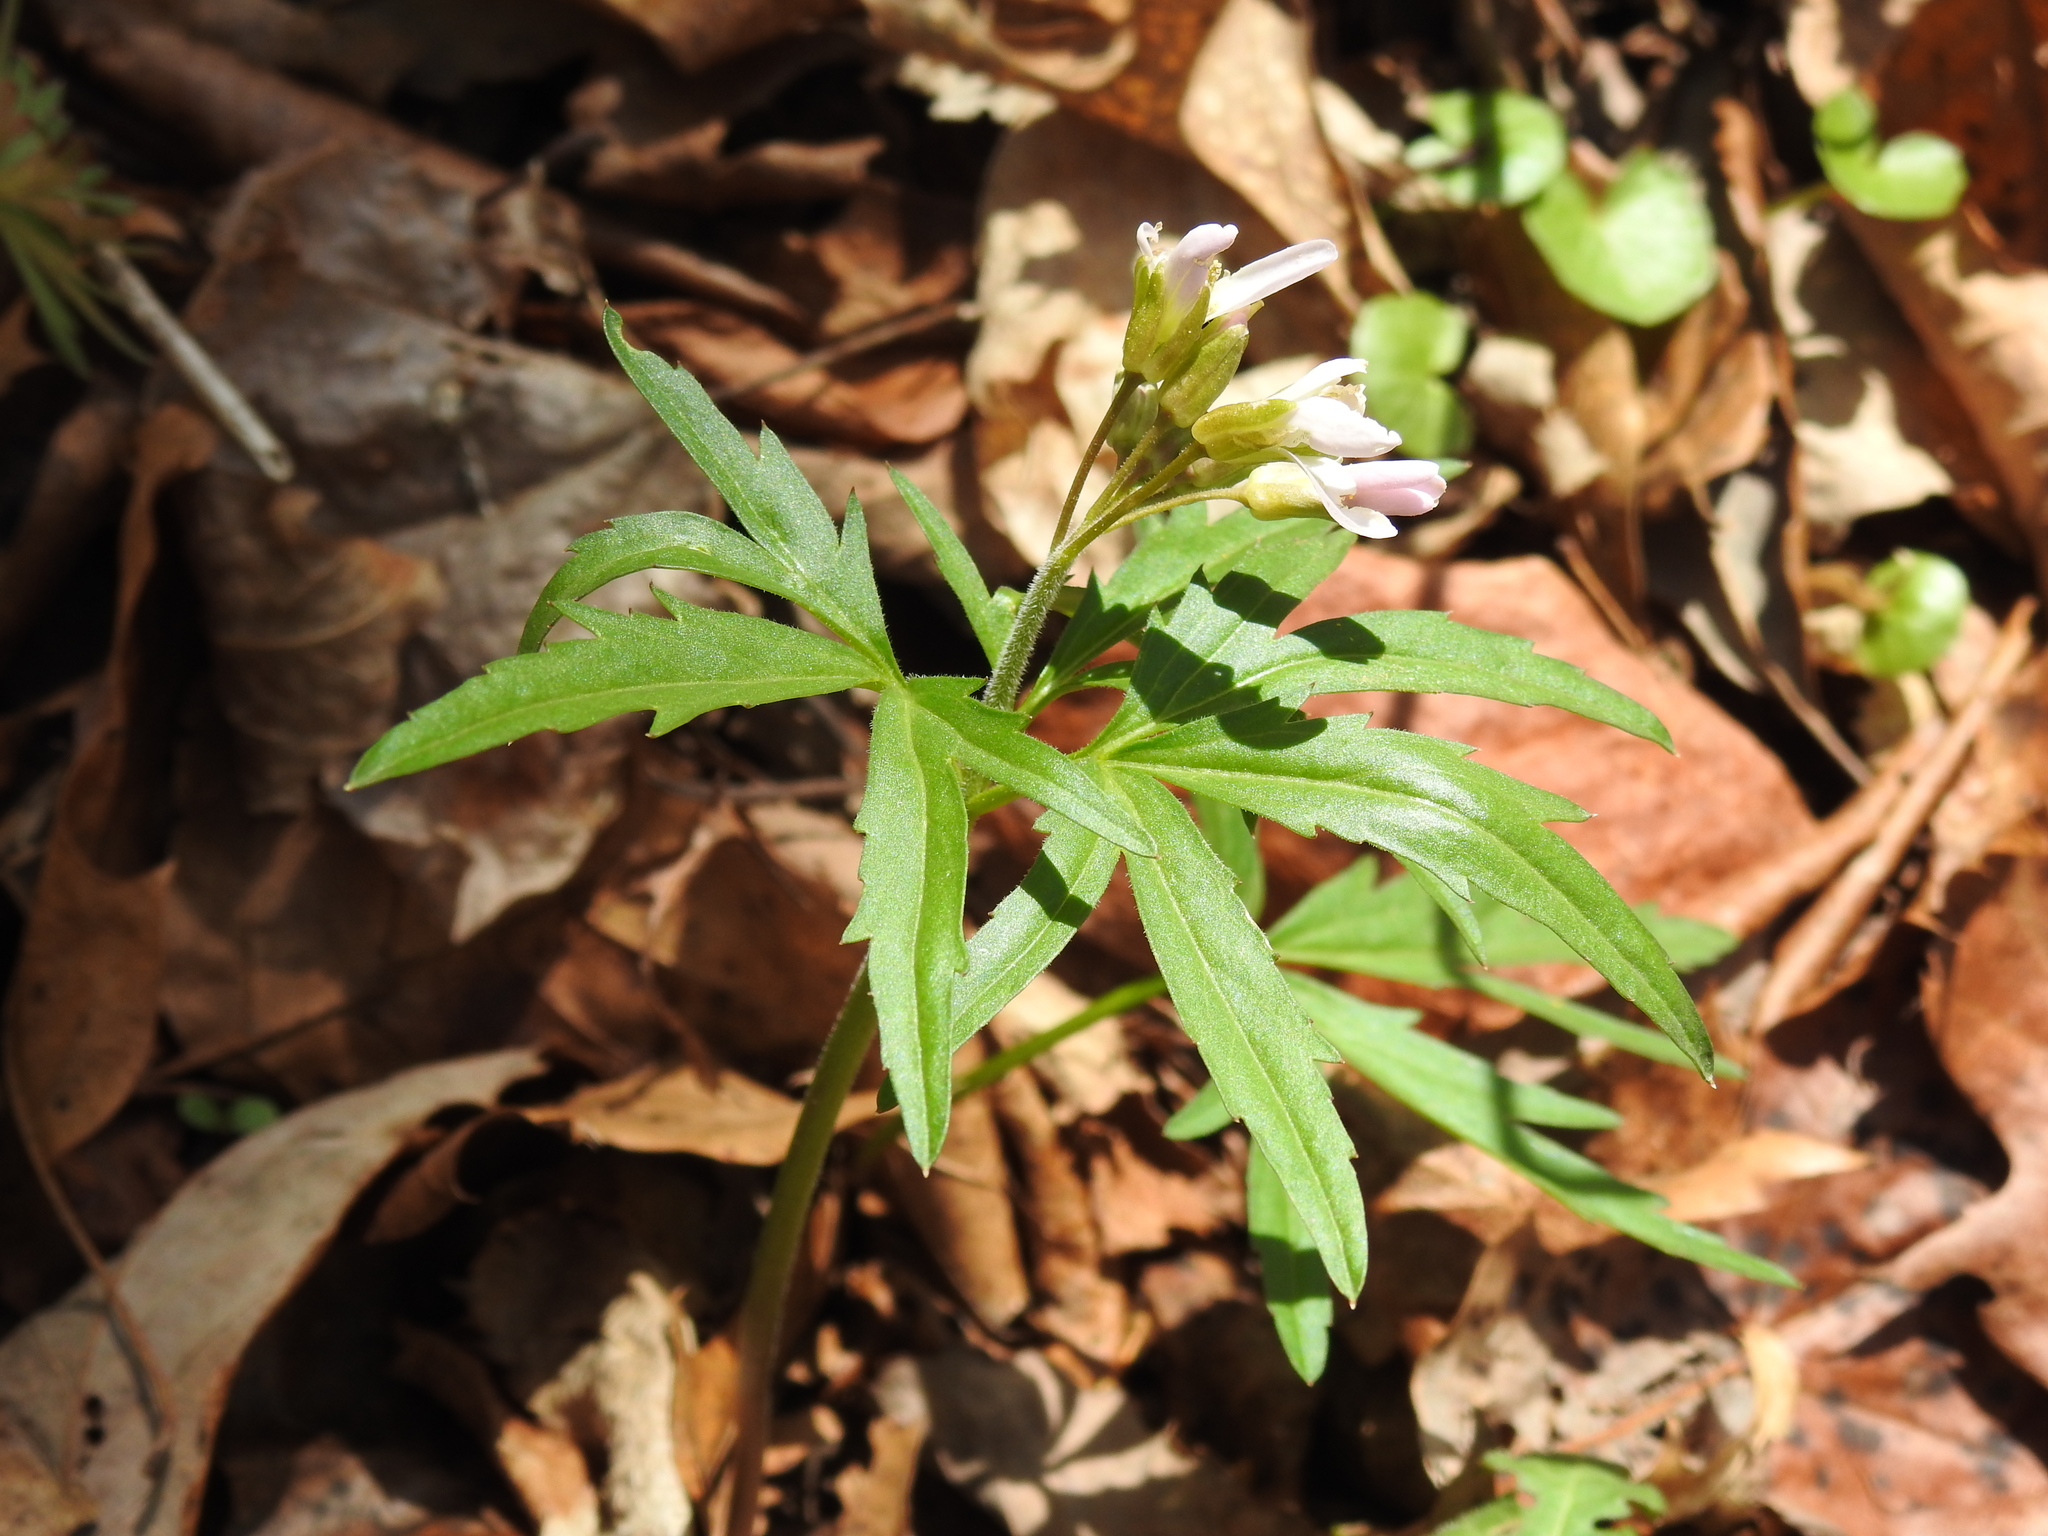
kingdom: Plantae
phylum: Tracheophyta
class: Magnoliopsida
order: Brassicales
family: Brassicaceae
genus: Cardamine
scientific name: Cardamine concatenata
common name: Cut-leaf toothcup
